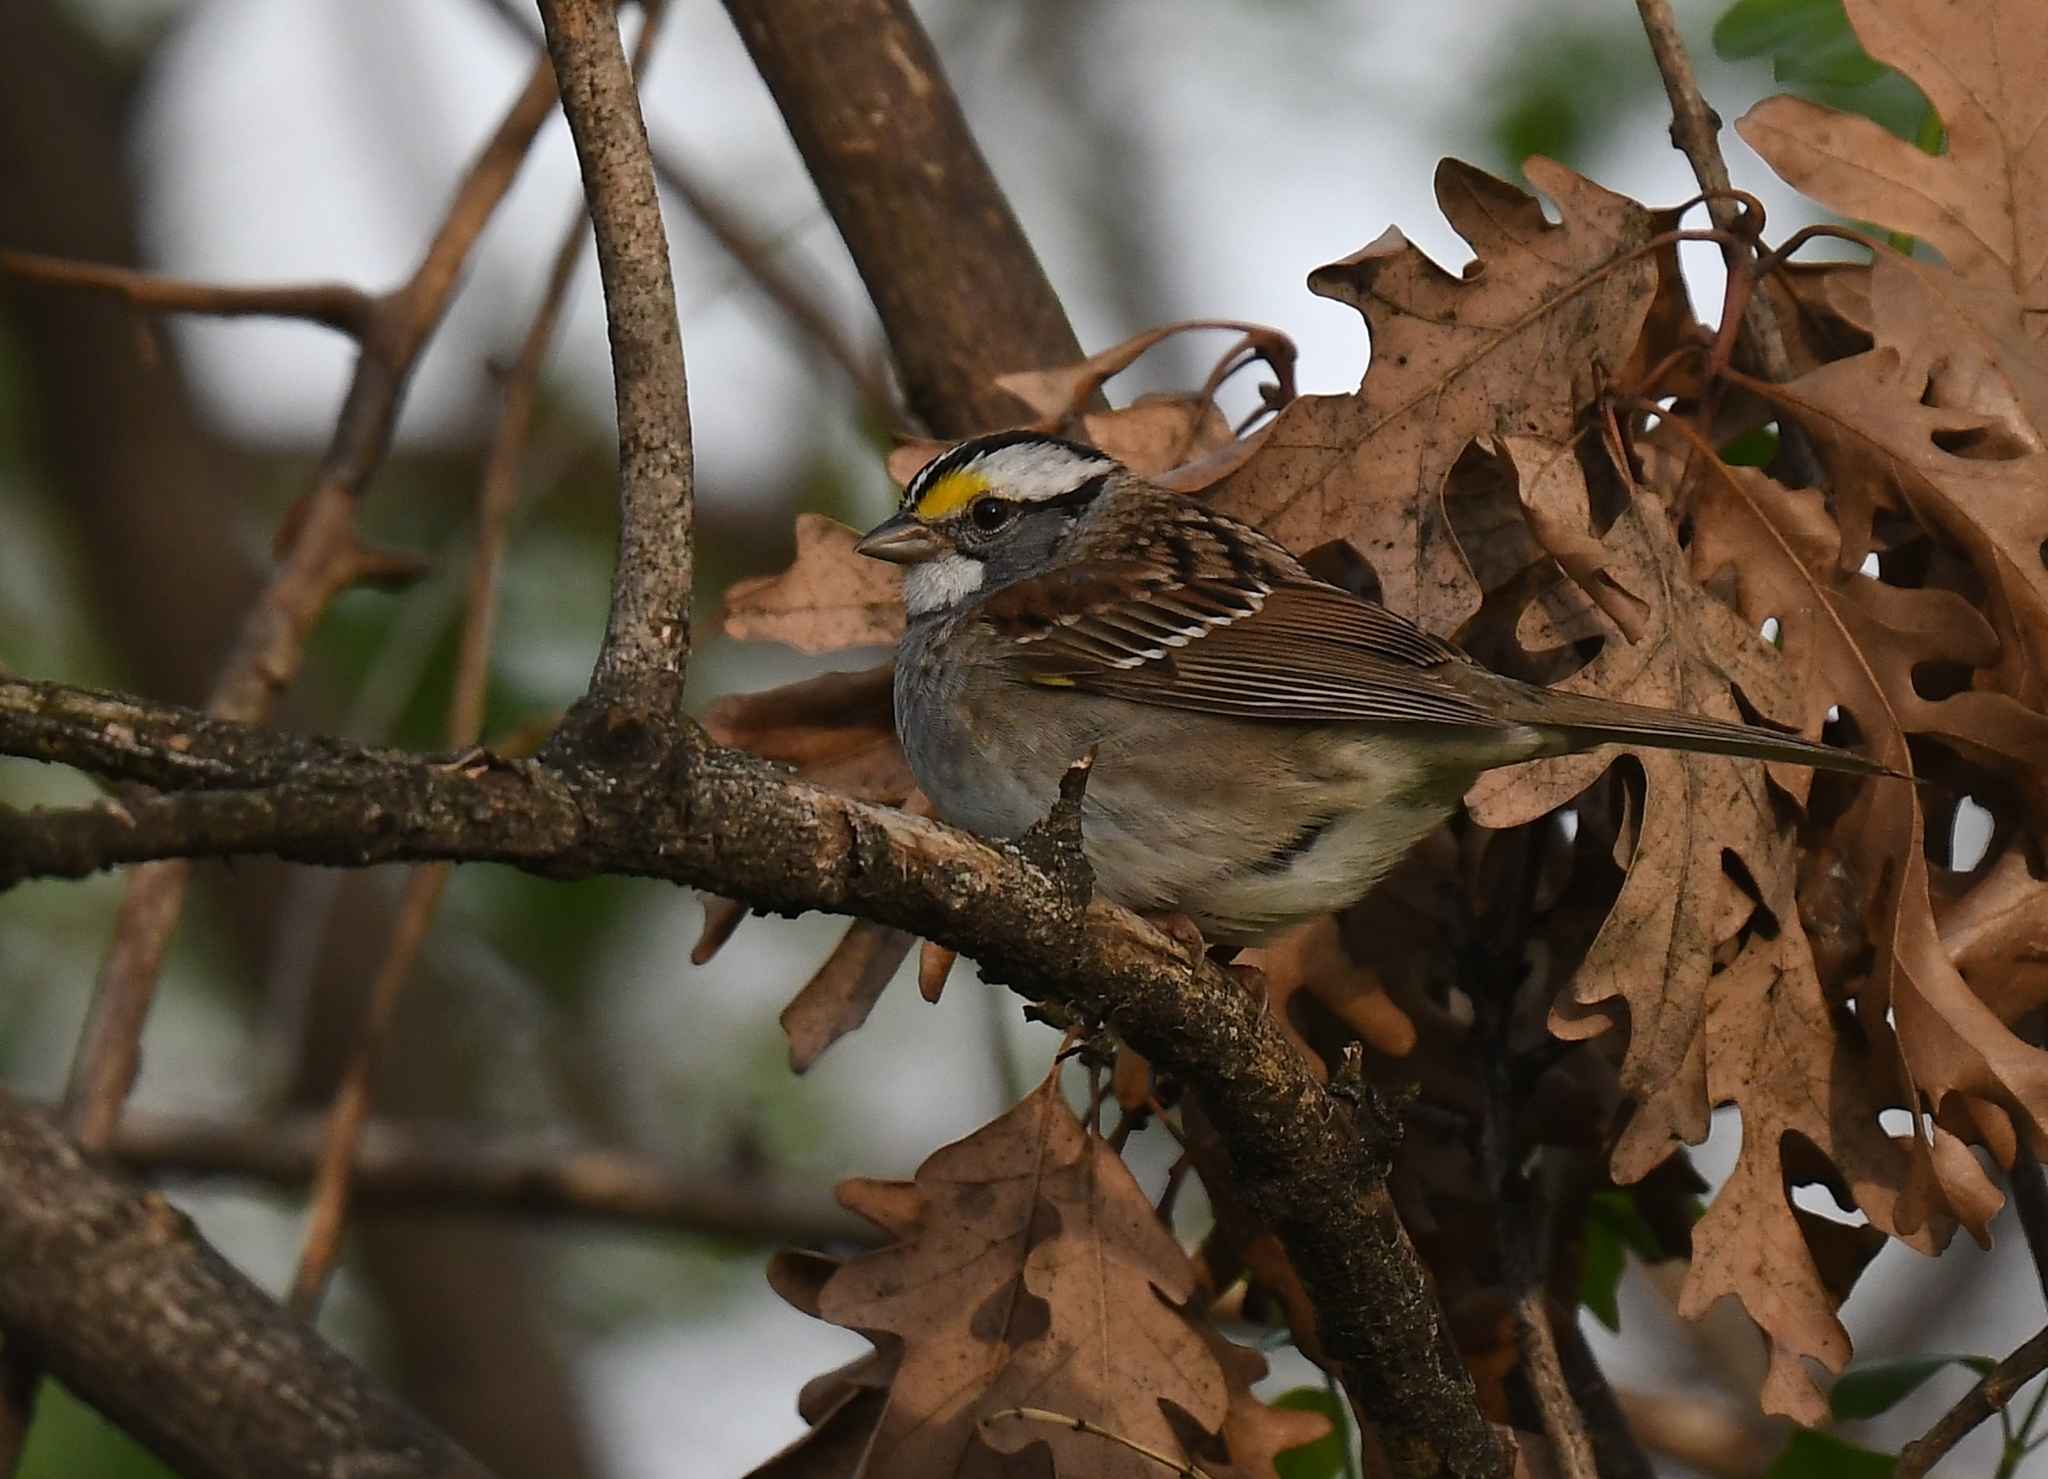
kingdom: Animalia
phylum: Chordata
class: Aves
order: Passeriformes
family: Passerellidae
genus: Zonotrichia
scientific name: Zonotrichia albicollis
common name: White-throated sparrow
